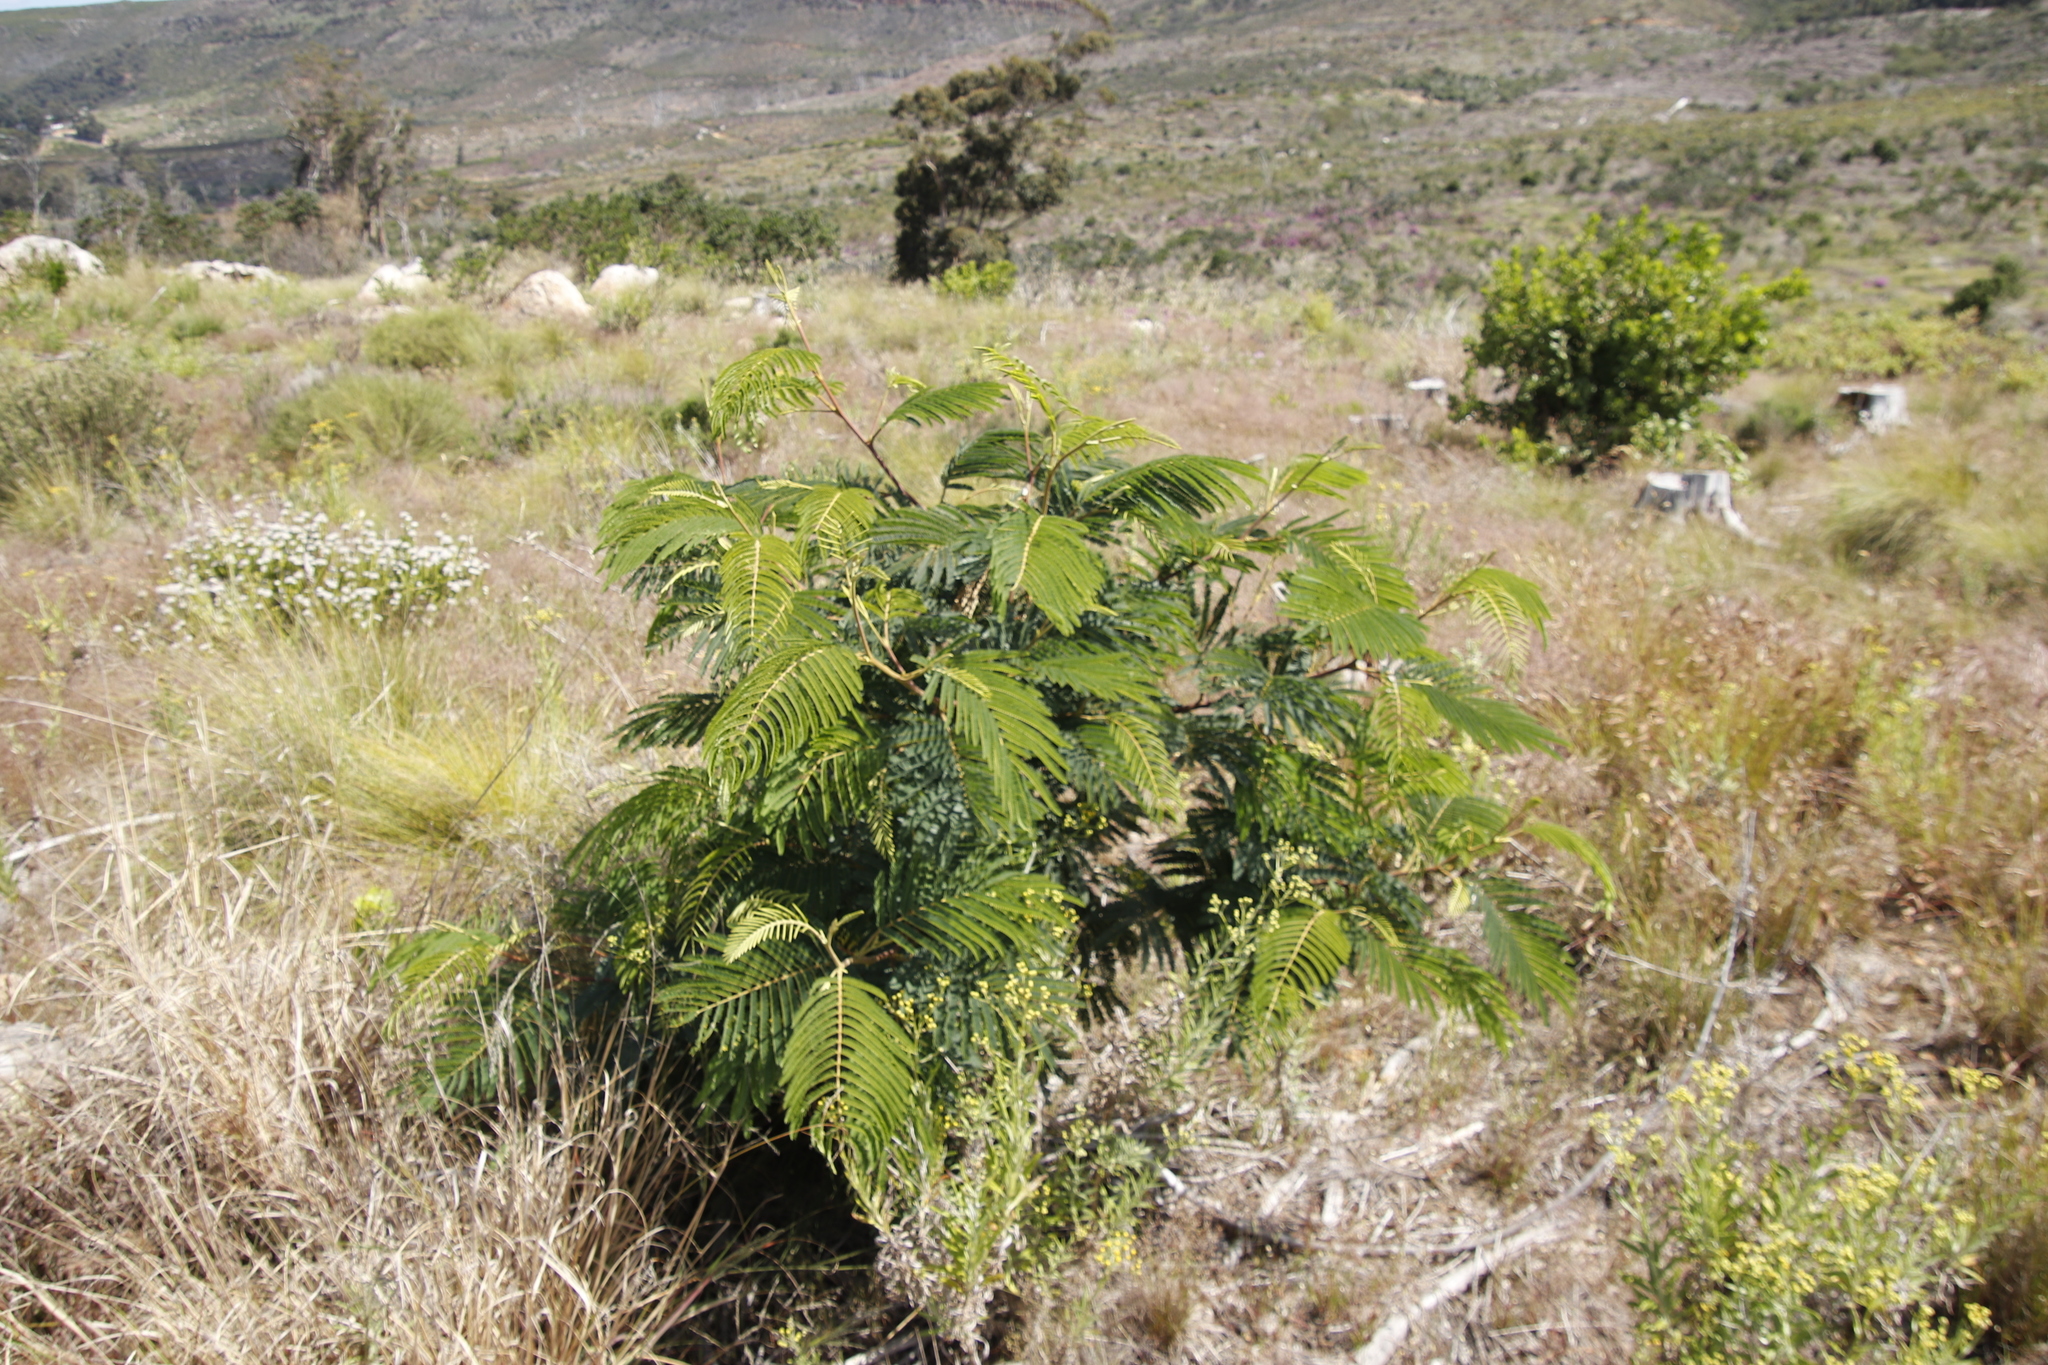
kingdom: Plantae
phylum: Tracheophyta
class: Magnoliopsida
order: Fabales
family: Fabaceae
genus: Paraserianthes
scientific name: Paraserianthes lophantha
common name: Plume albizia
